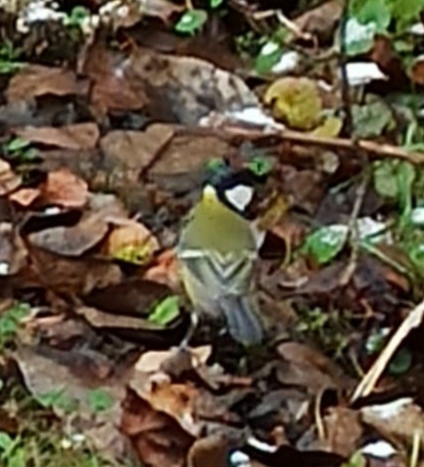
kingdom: Animalia
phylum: Chordata
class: Aves
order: Passeriformes
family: Paridae
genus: Parus
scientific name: Parus major
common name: Great tit
